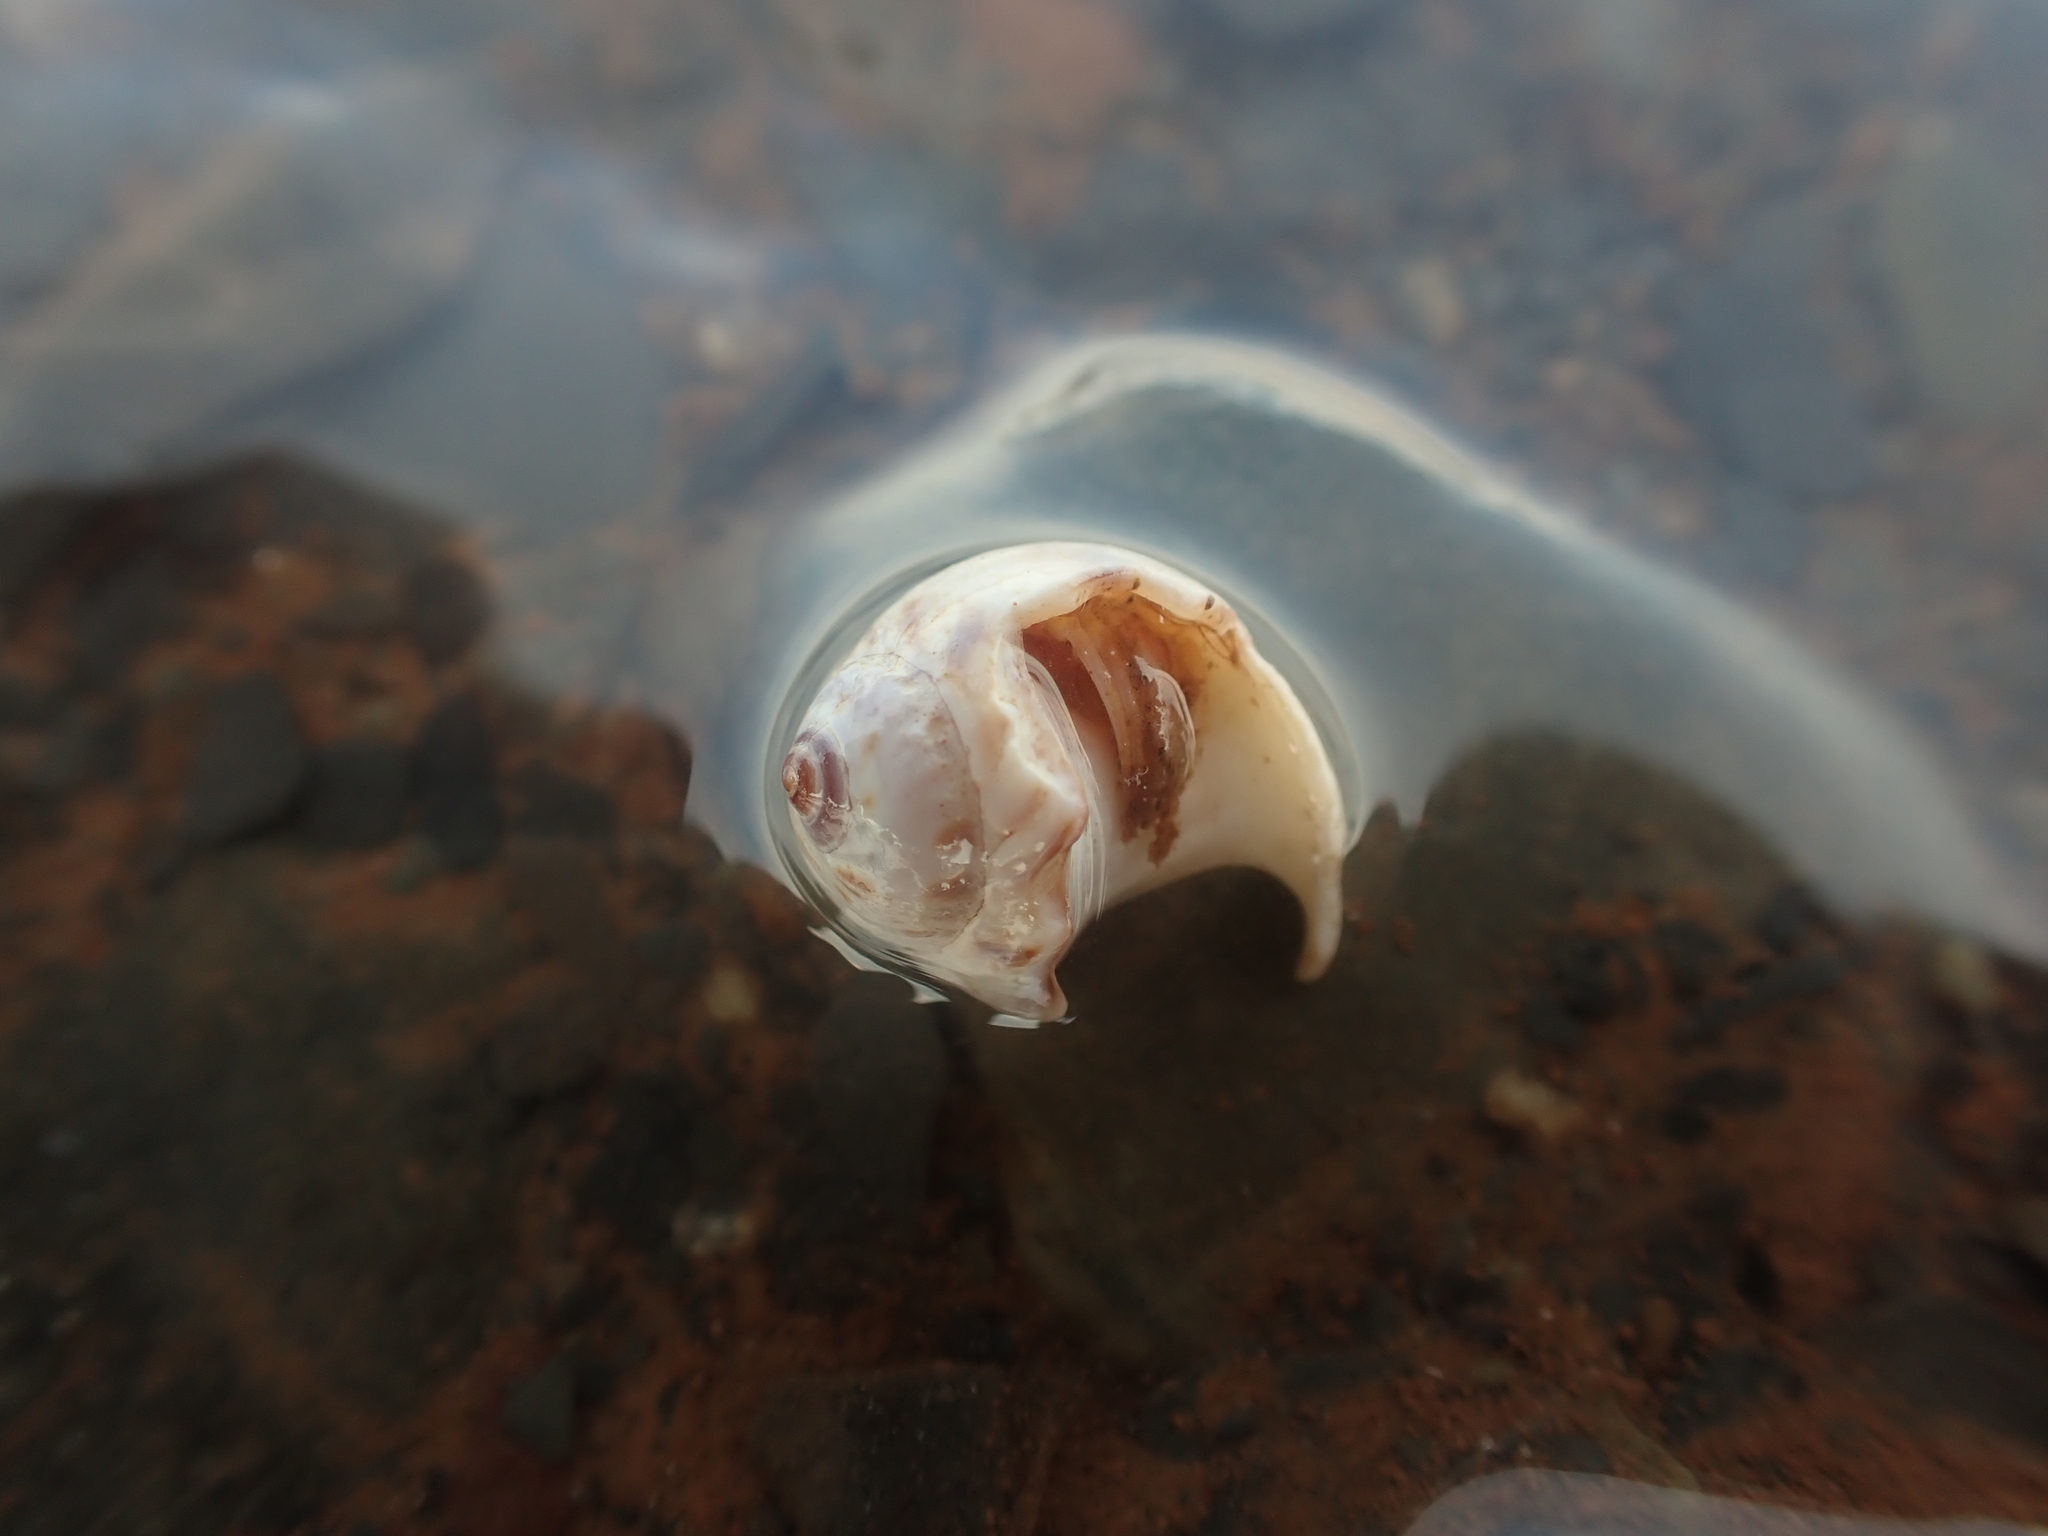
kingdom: Animalia
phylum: Mollusca
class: Gastropoda
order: Littorinimorpha
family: Naticidae
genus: Euspira
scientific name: Euspira triseriata
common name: Spotted moonsnail
